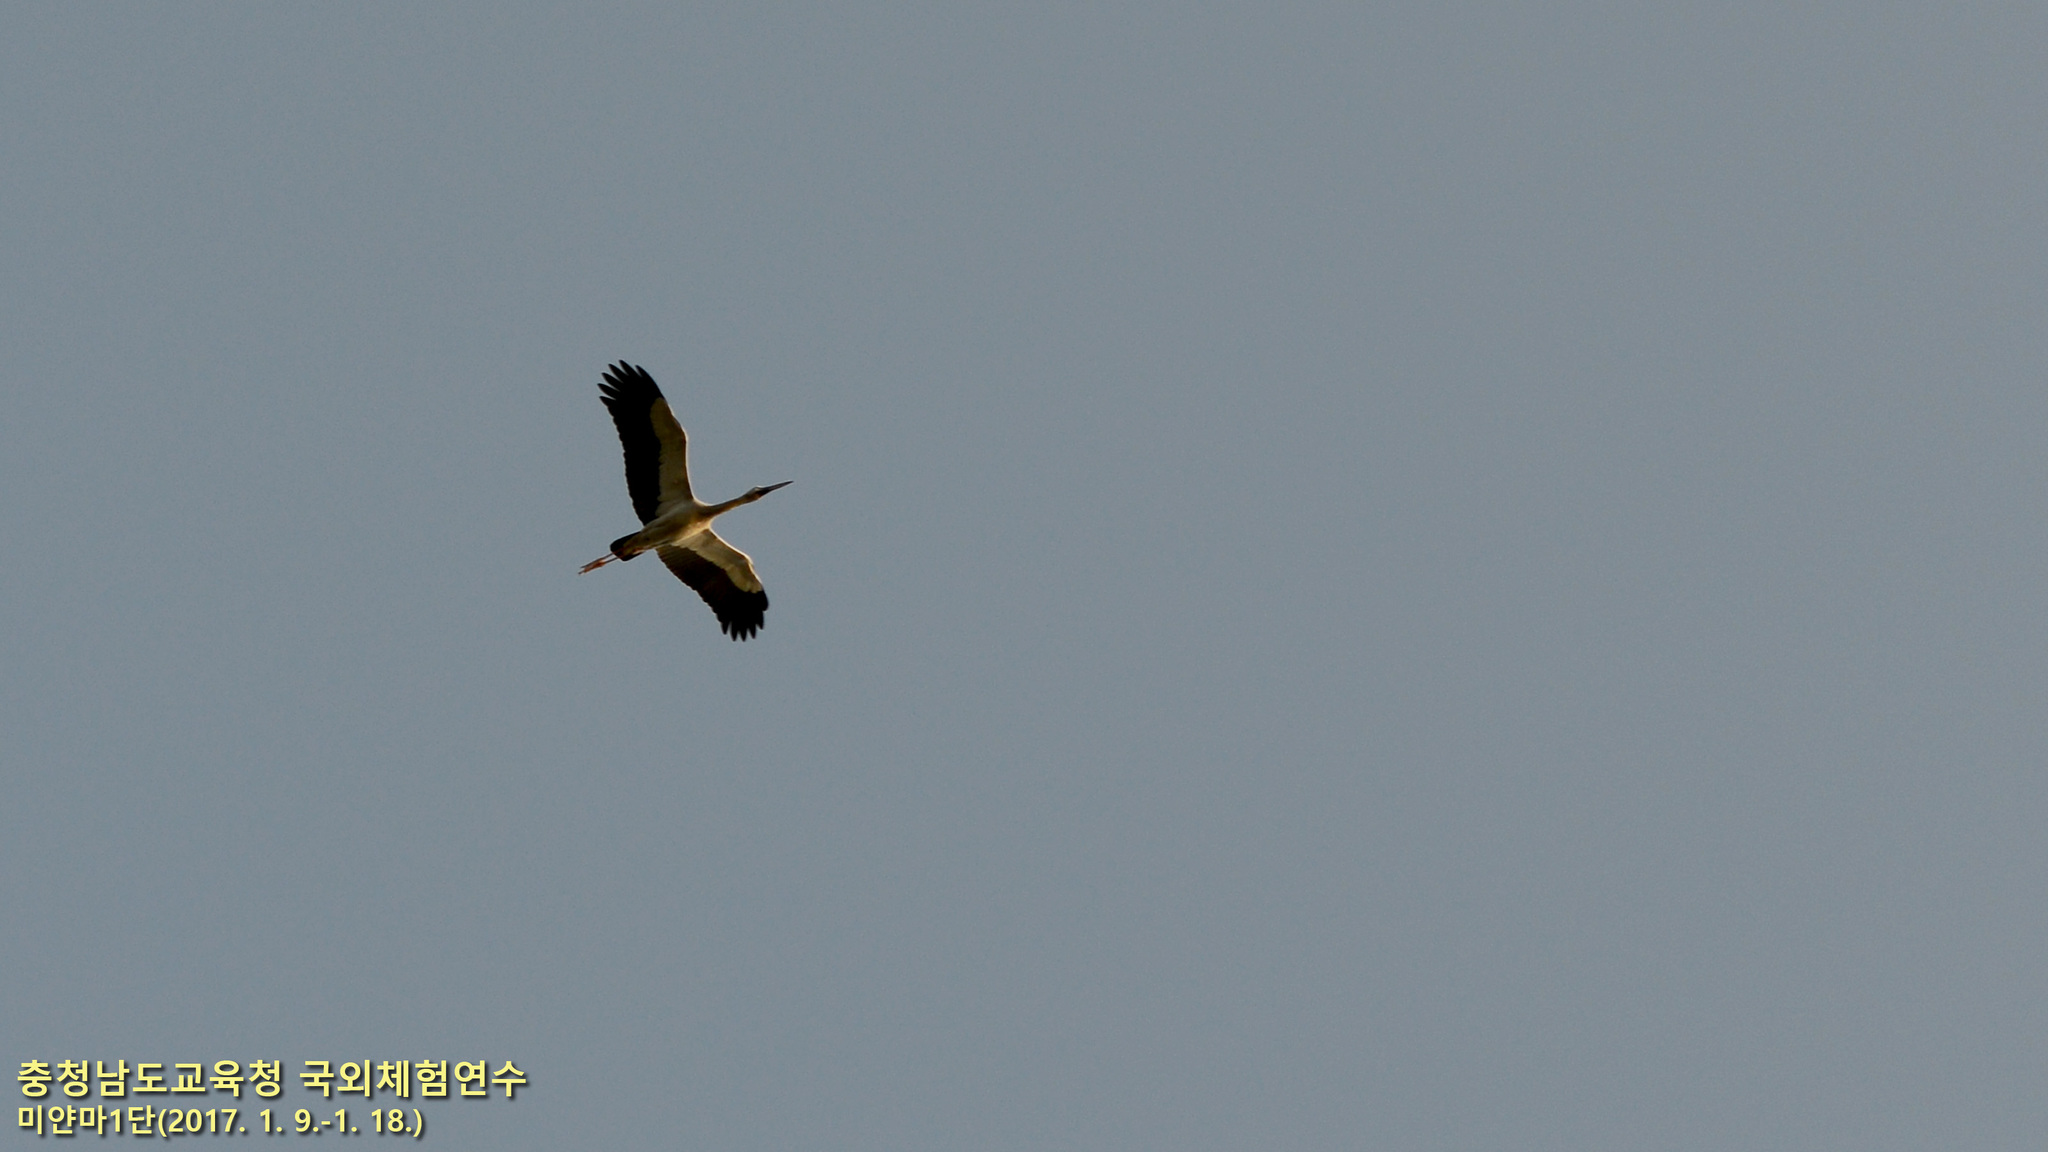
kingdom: Animalia
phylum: Chordata
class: Aves
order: Ciconiiformes
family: Ciconiidae
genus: Anastomus
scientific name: Anastomus oscitans
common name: Asian openbill
